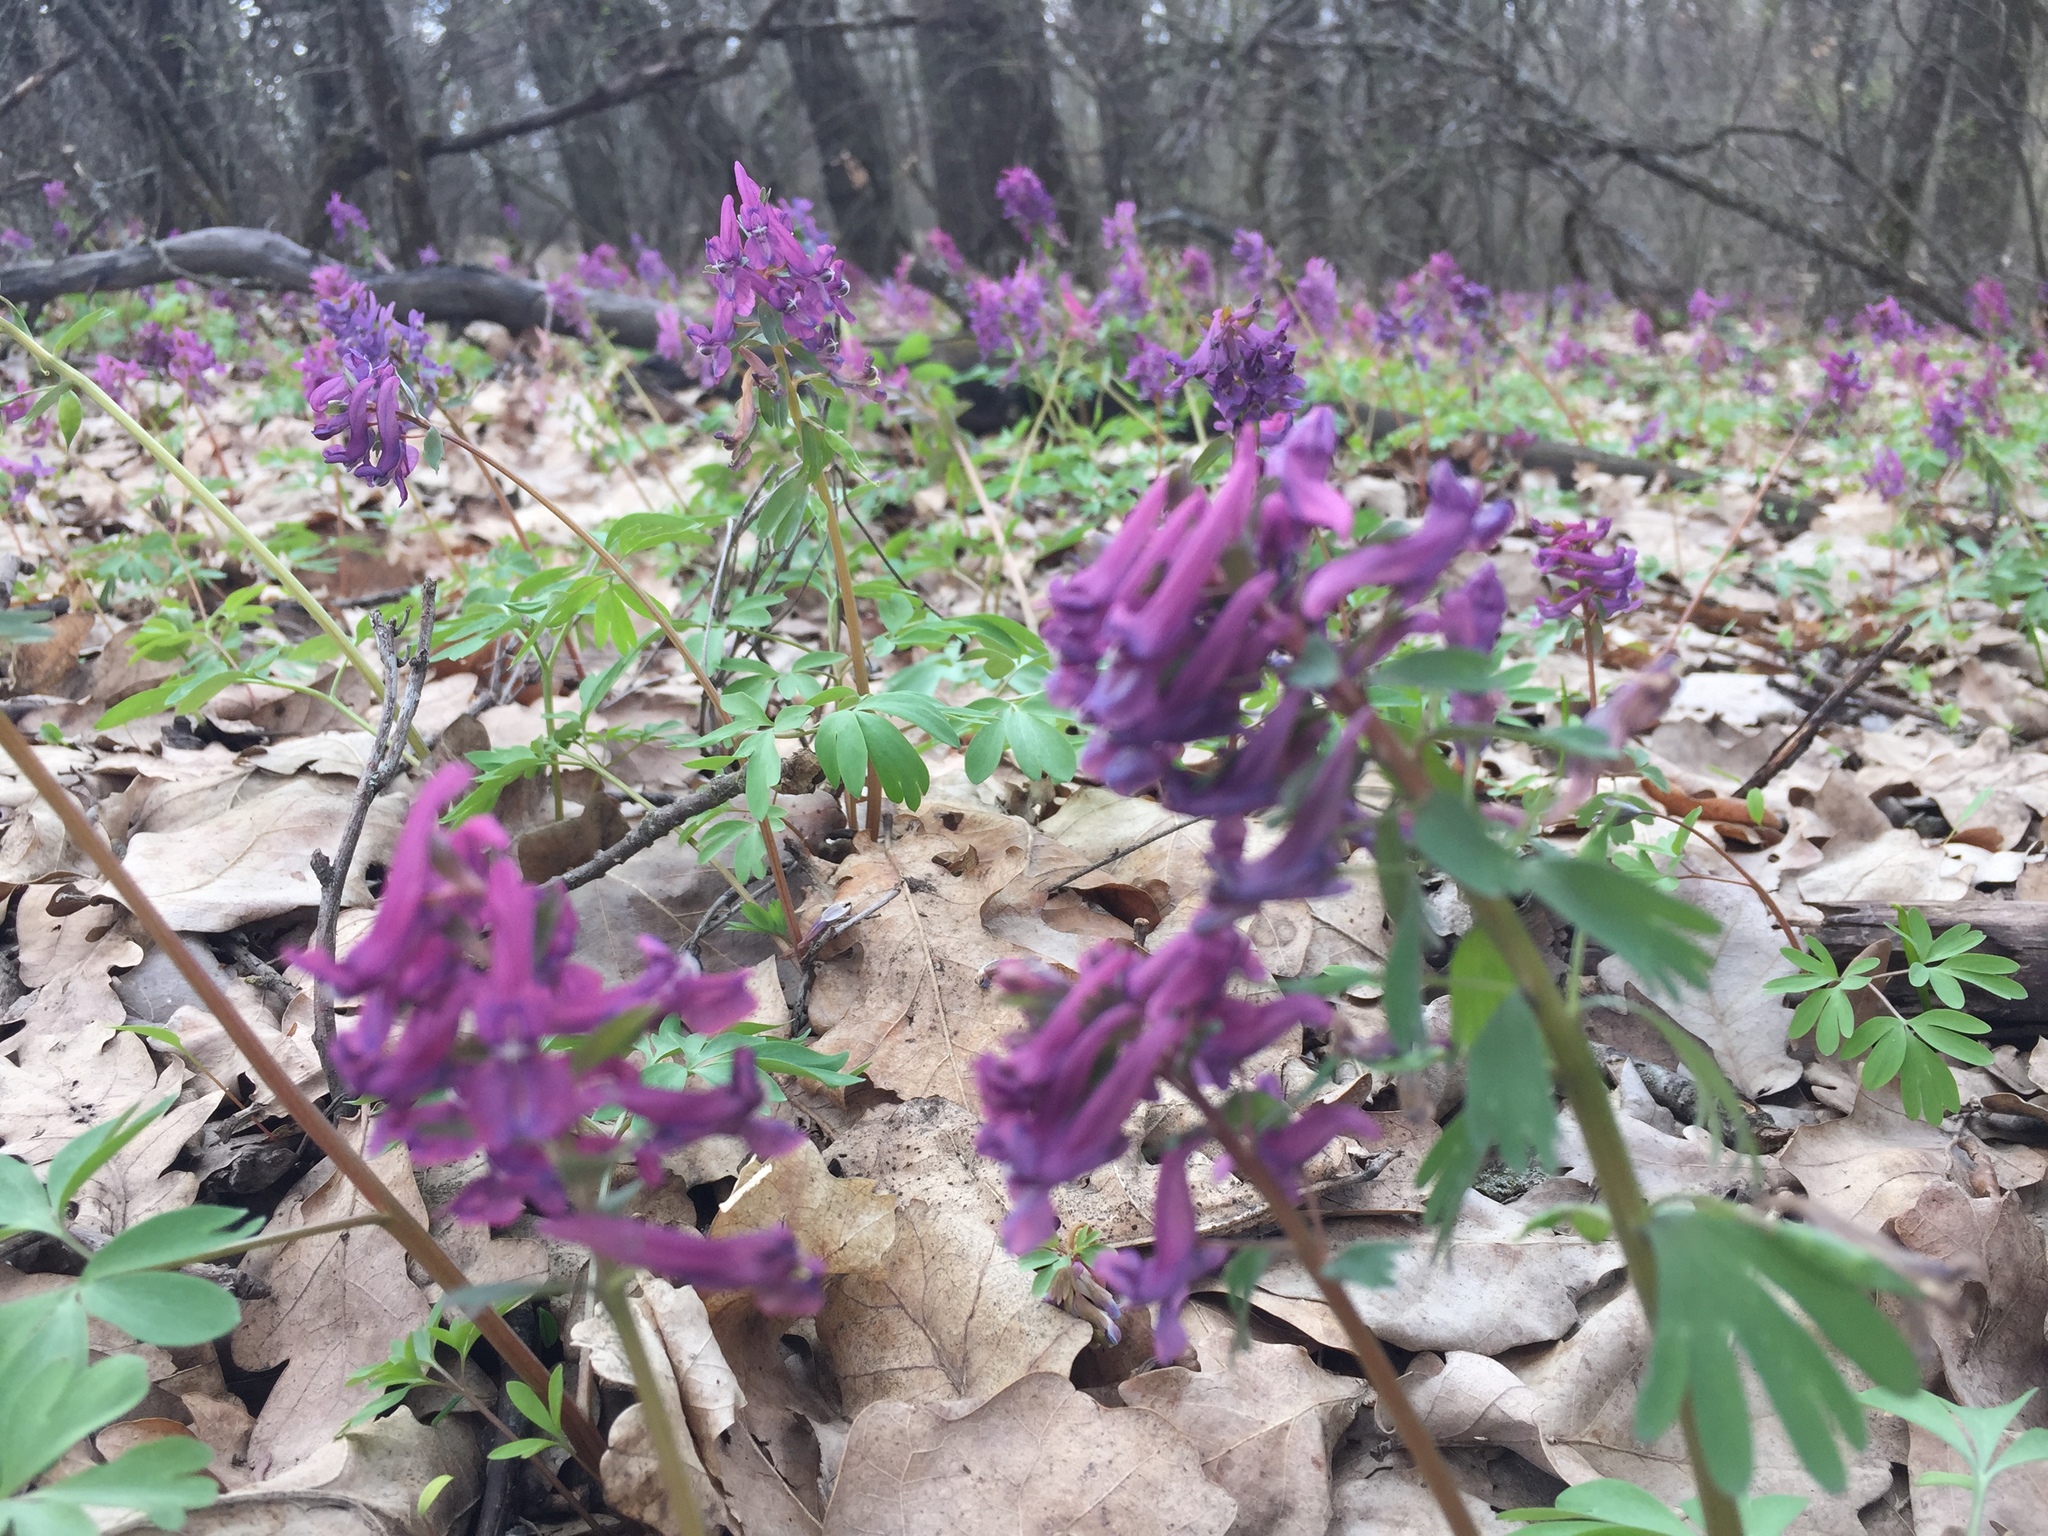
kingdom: Plantae
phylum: Tracheophyta
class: Magnoliopsida
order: Ranunculales
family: Papaveraceae
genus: Corydalis
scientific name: Corydalis solida
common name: Bird-in-a-bush
